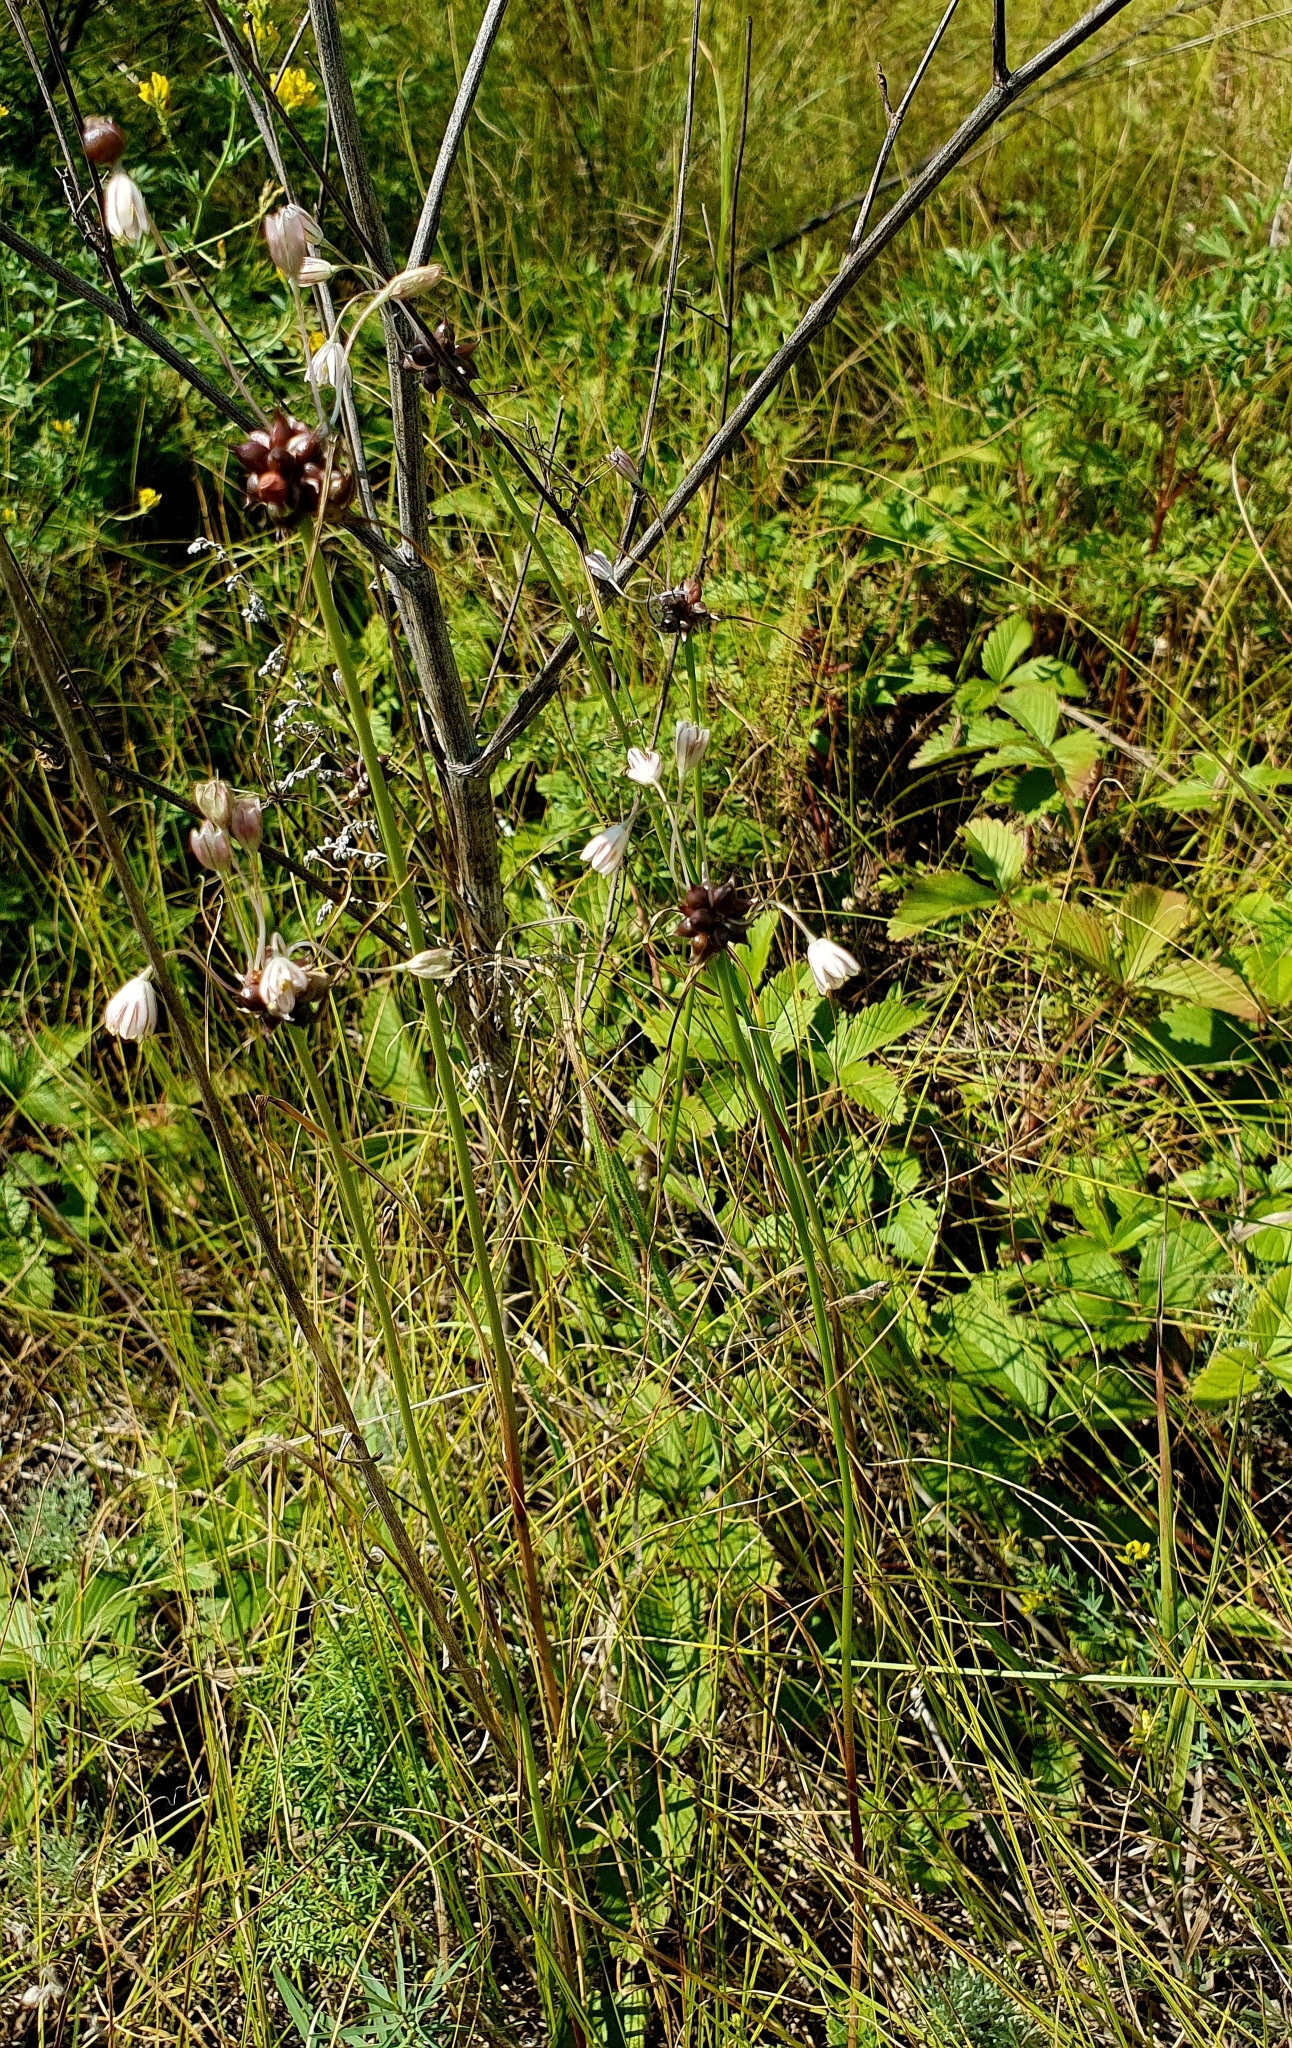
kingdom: Plantae
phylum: Tracheophyta
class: Liliopsida
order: Asparagales
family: Amaryllidaceae
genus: Allium
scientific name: Allium oleraceum
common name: Field garlic
